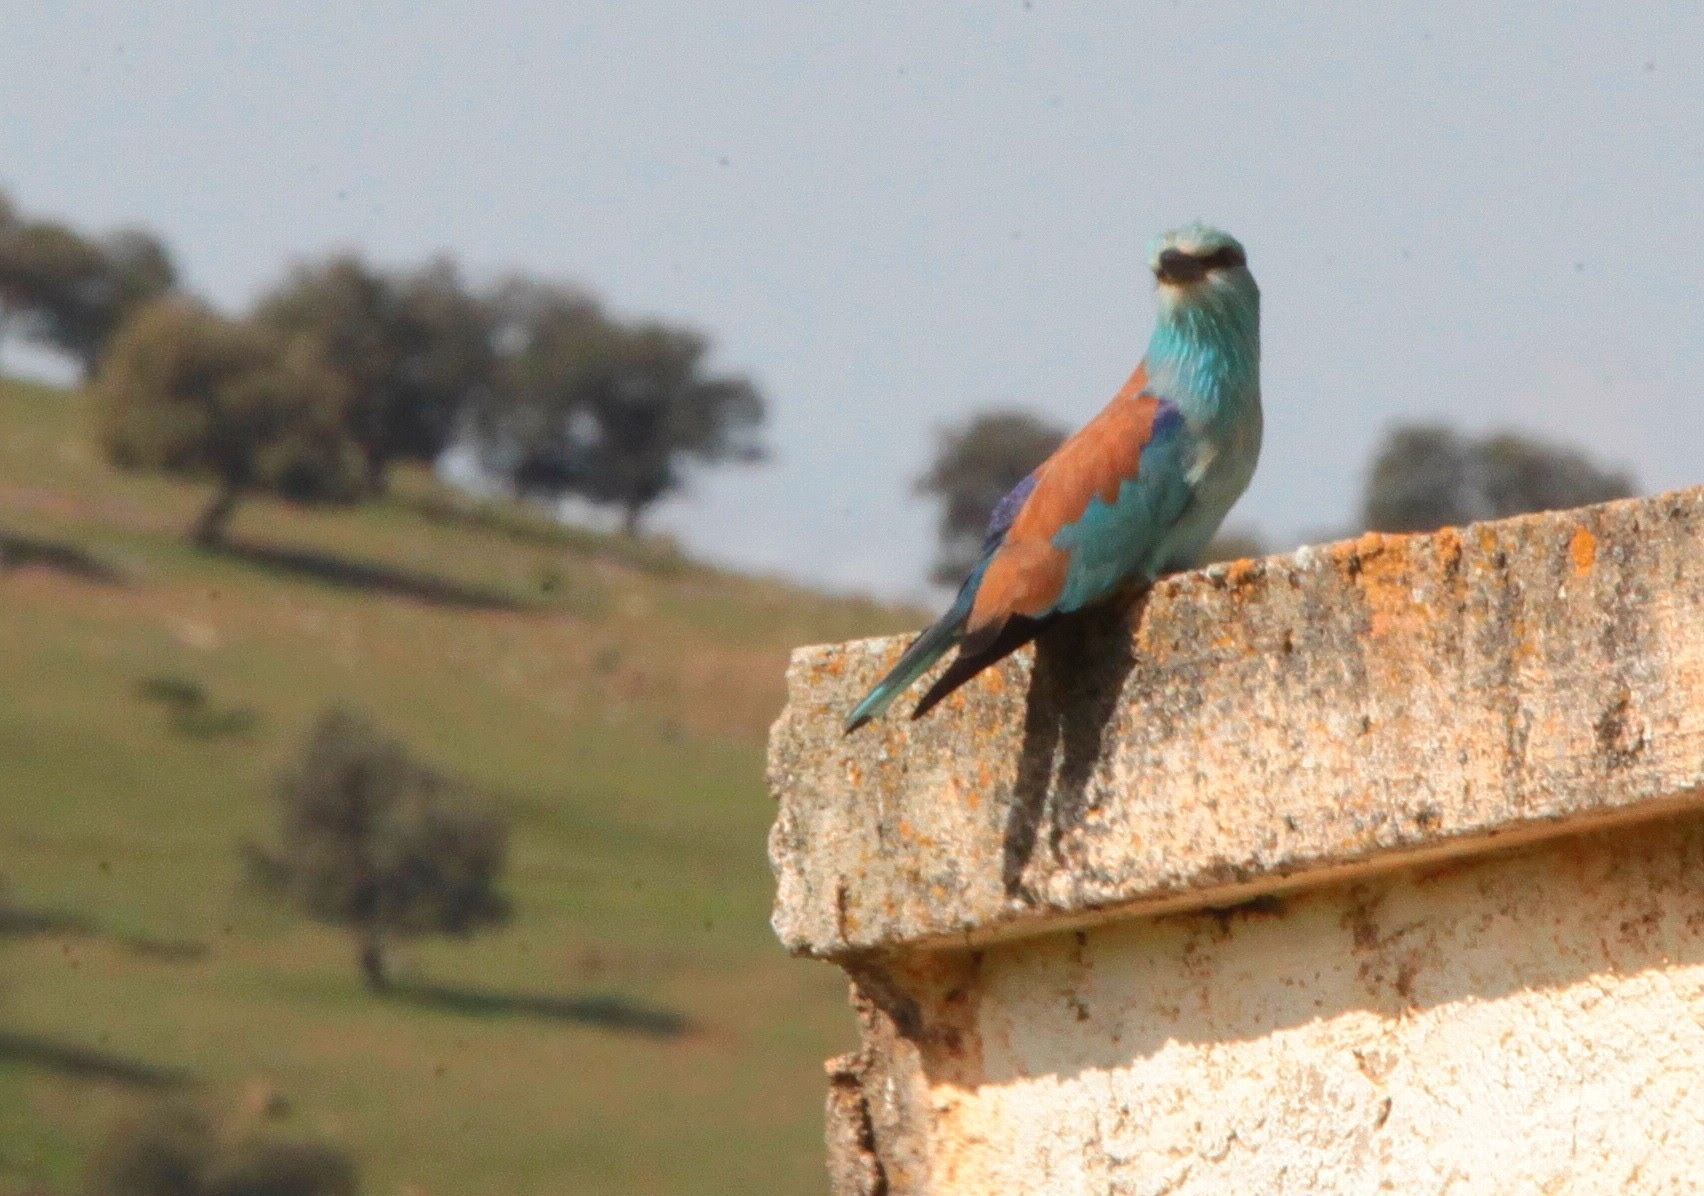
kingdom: Animalia
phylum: Chordata
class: Aves
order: Coraciiformes
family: Coraciidae
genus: Coracias
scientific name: Coracias garrulus
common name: European roller
